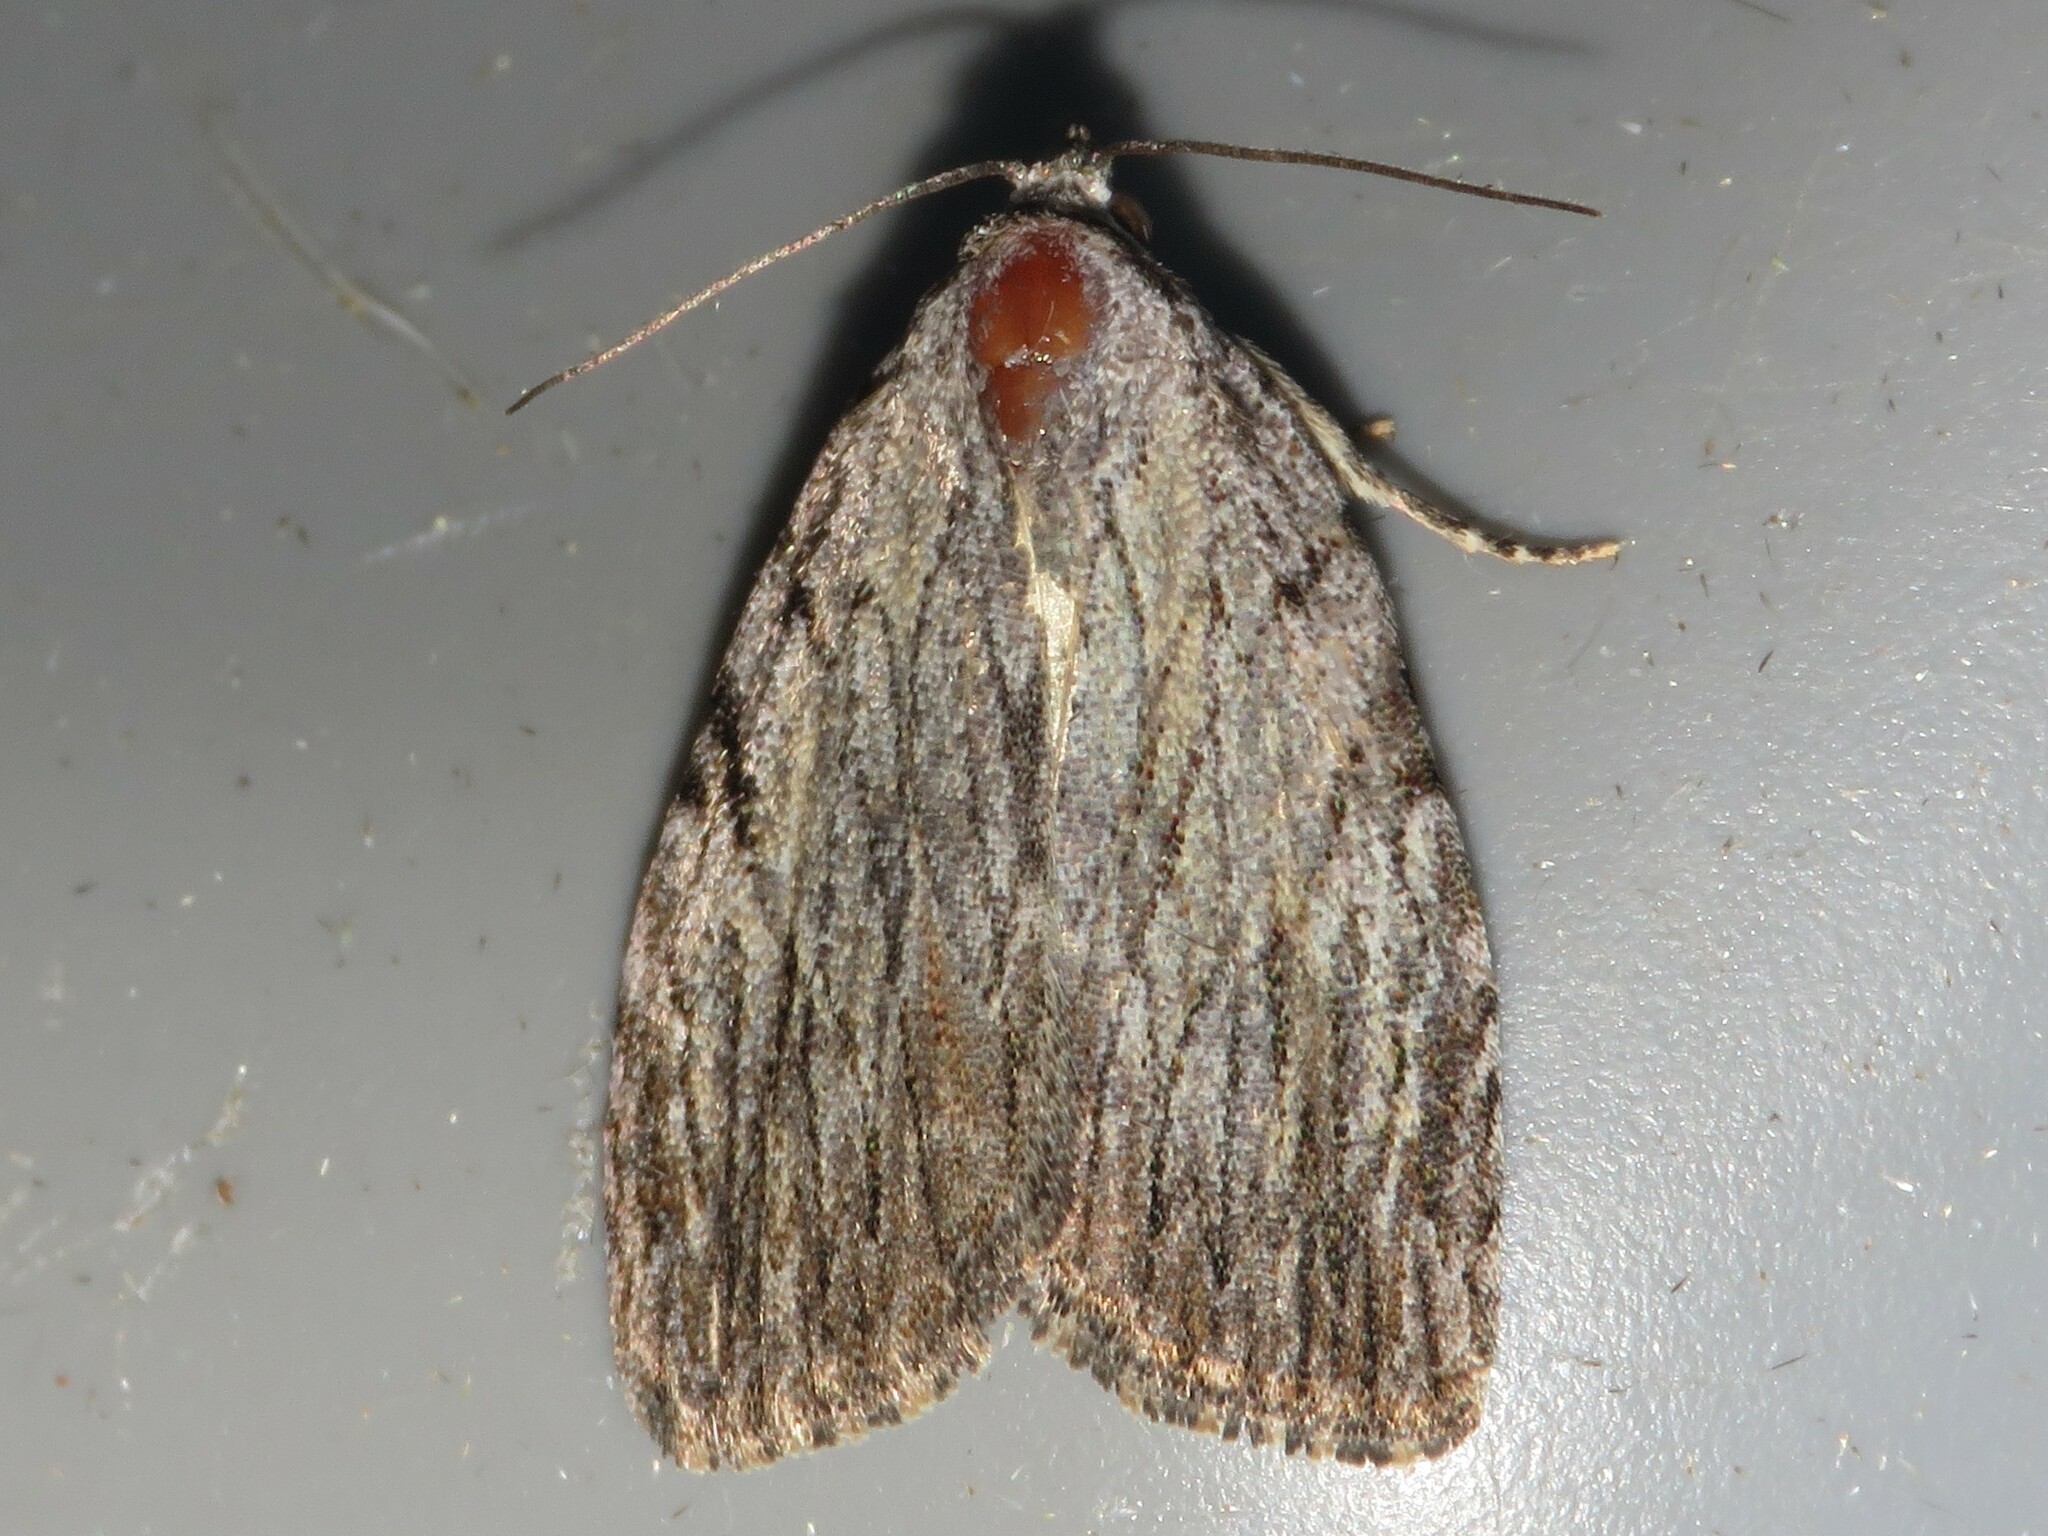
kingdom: Animalia
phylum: Arthropoda
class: Insecta
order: Lepidoptera
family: Noctuidae
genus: Balsa
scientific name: Balsa tristrigella
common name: Three-lined balsa moth
